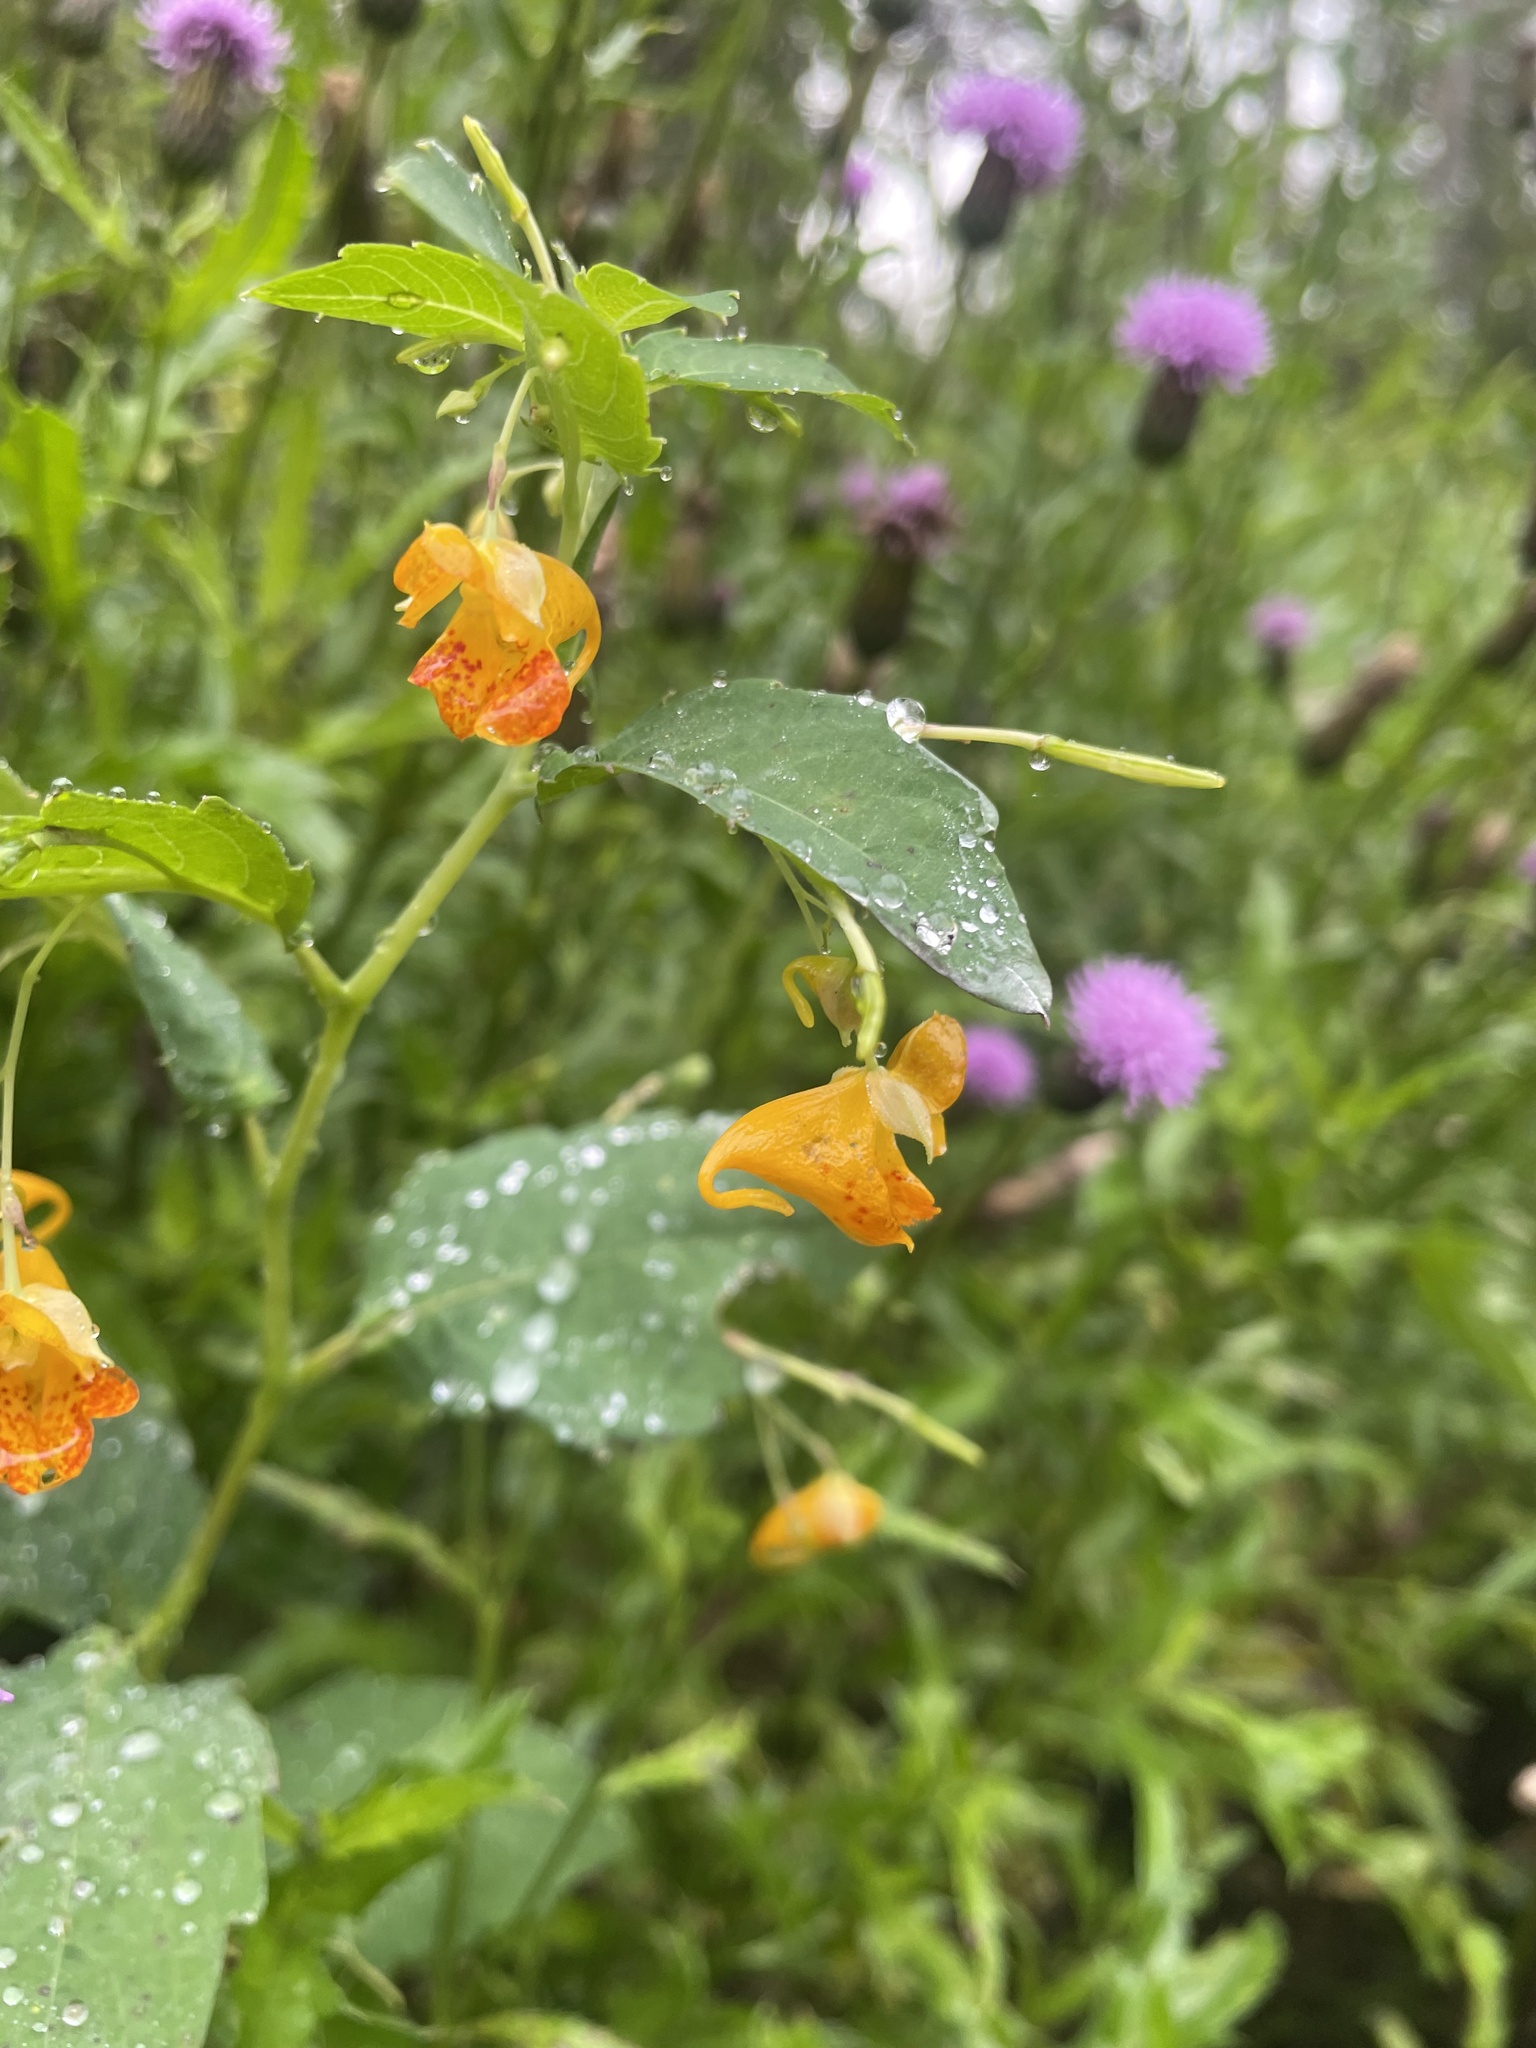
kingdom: Plantae
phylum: Tracheophyta
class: Magnoliopsida
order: Ericales
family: Balsaminaceae
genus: Impatiens
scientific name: Impatiens capensis
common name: Orange balsam
